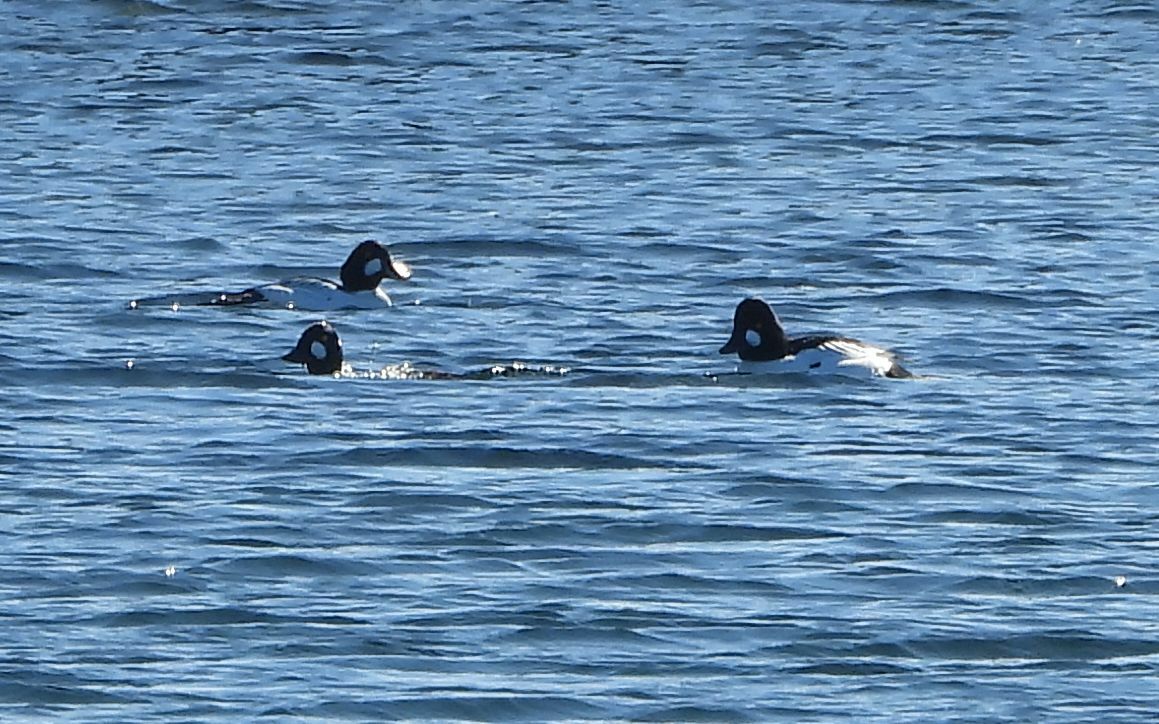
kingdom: Animalia
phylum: Chordata
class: Aves
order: Anseriformes
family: Anatidae
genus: Bucephala
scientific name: Bucephala clangula
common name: Common goldeneye
